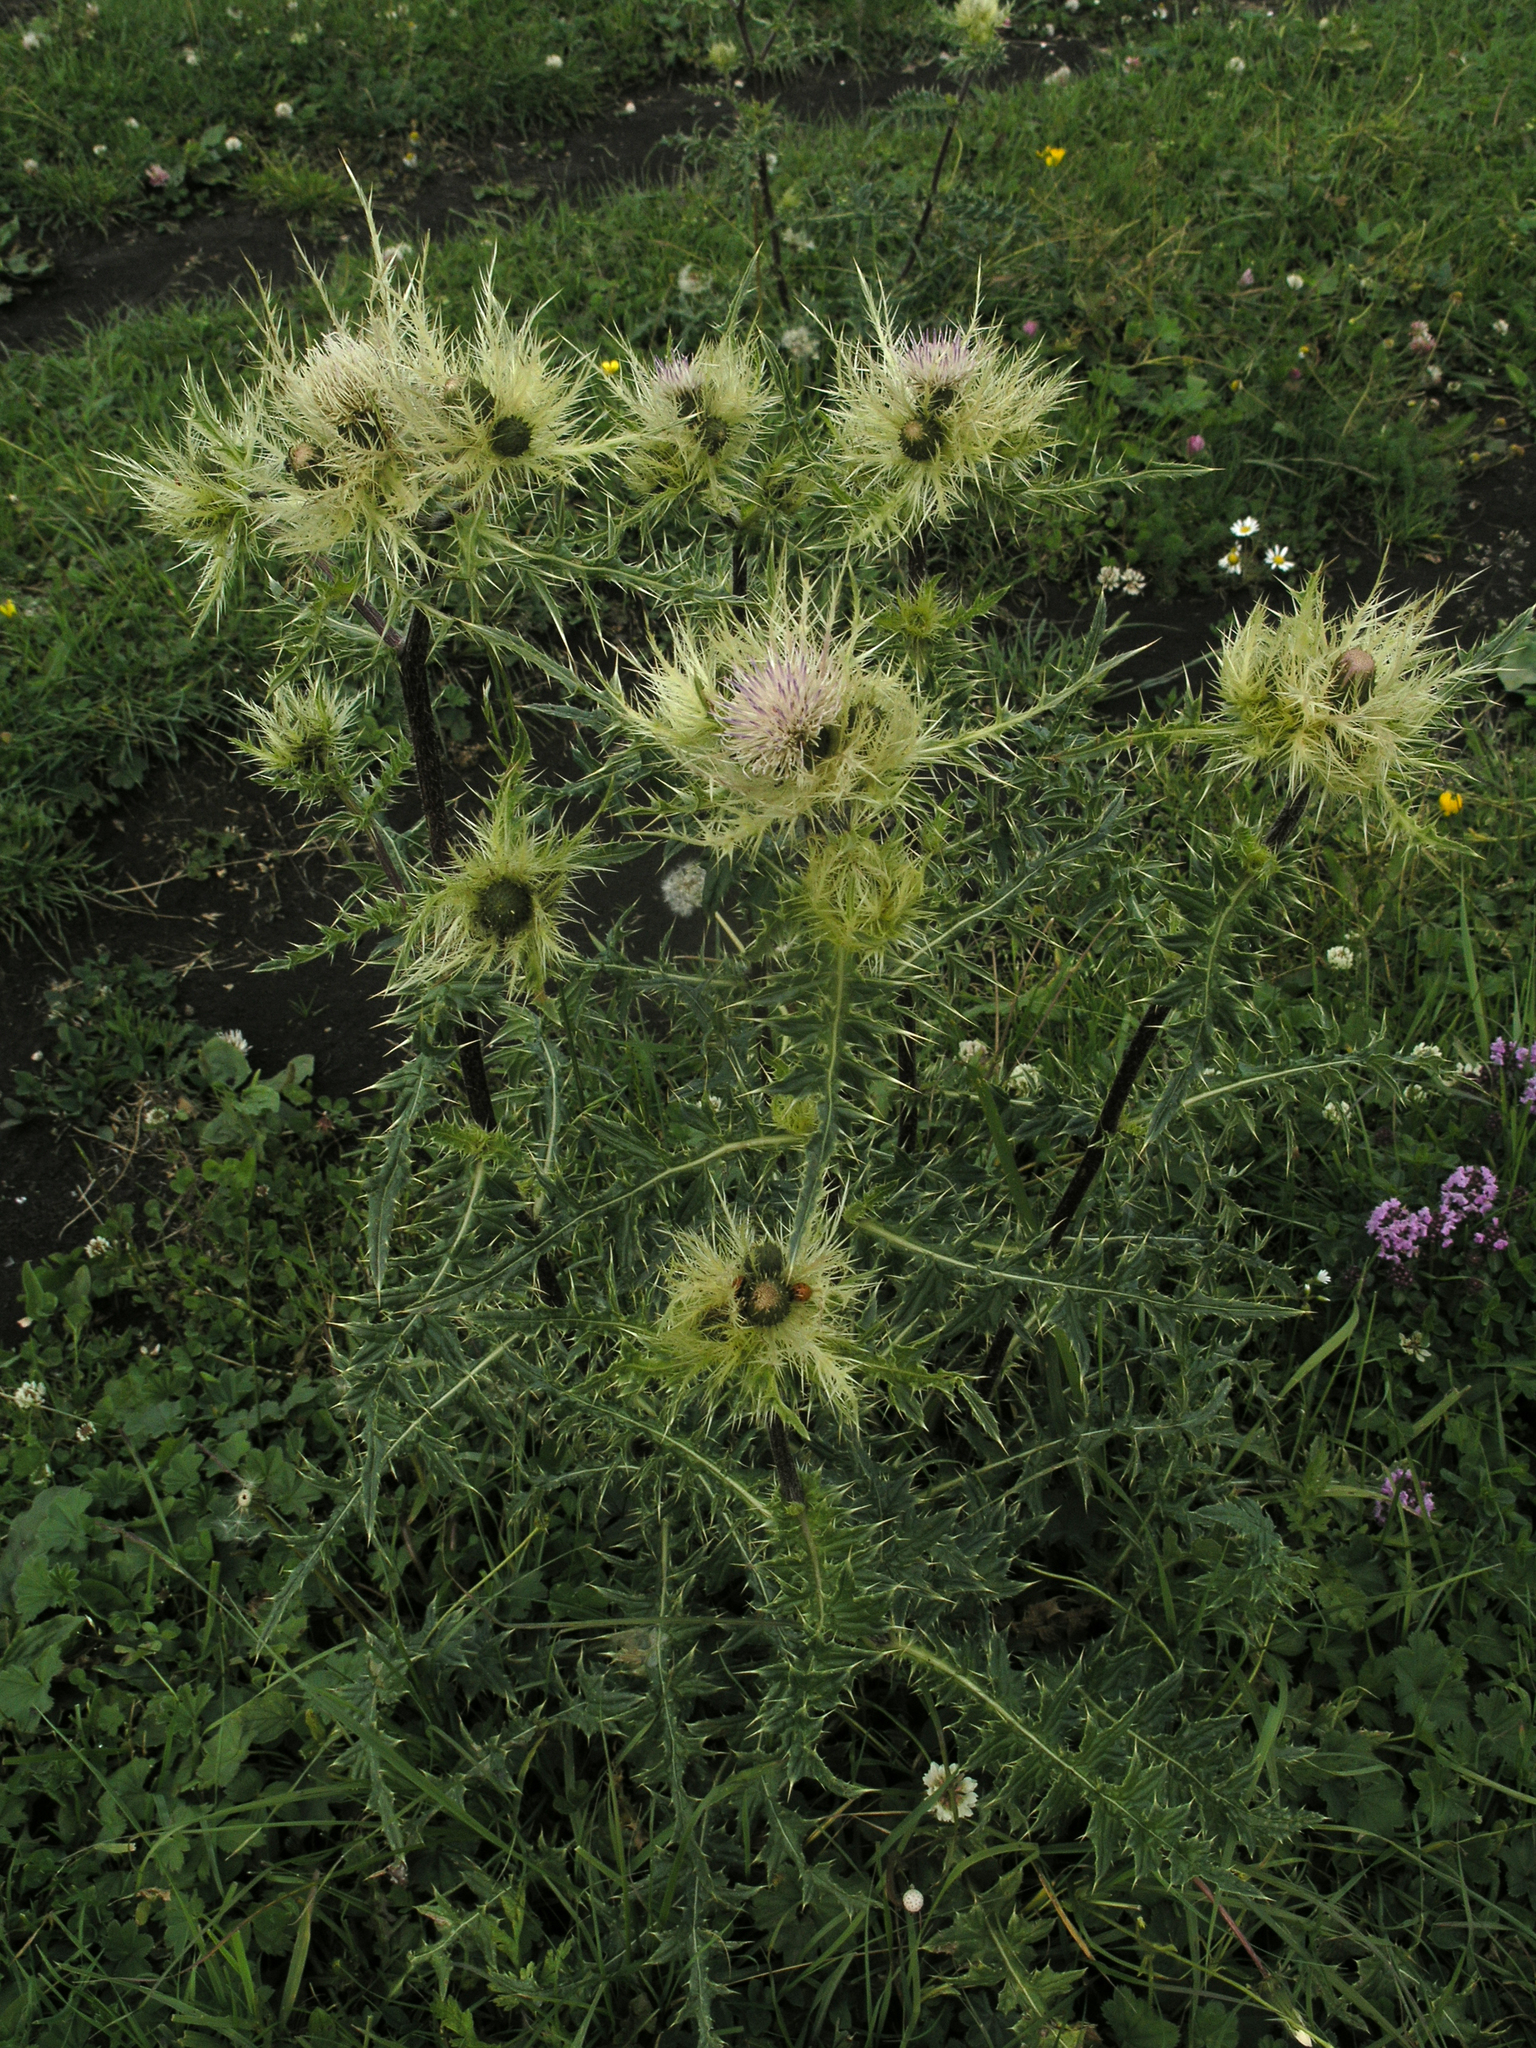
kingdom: Plantae
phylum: Tracheophyta
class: Magnoliopsida
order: Asterales
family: Asteraceae
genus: Cirsium
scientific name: Cirsium obvallatum
